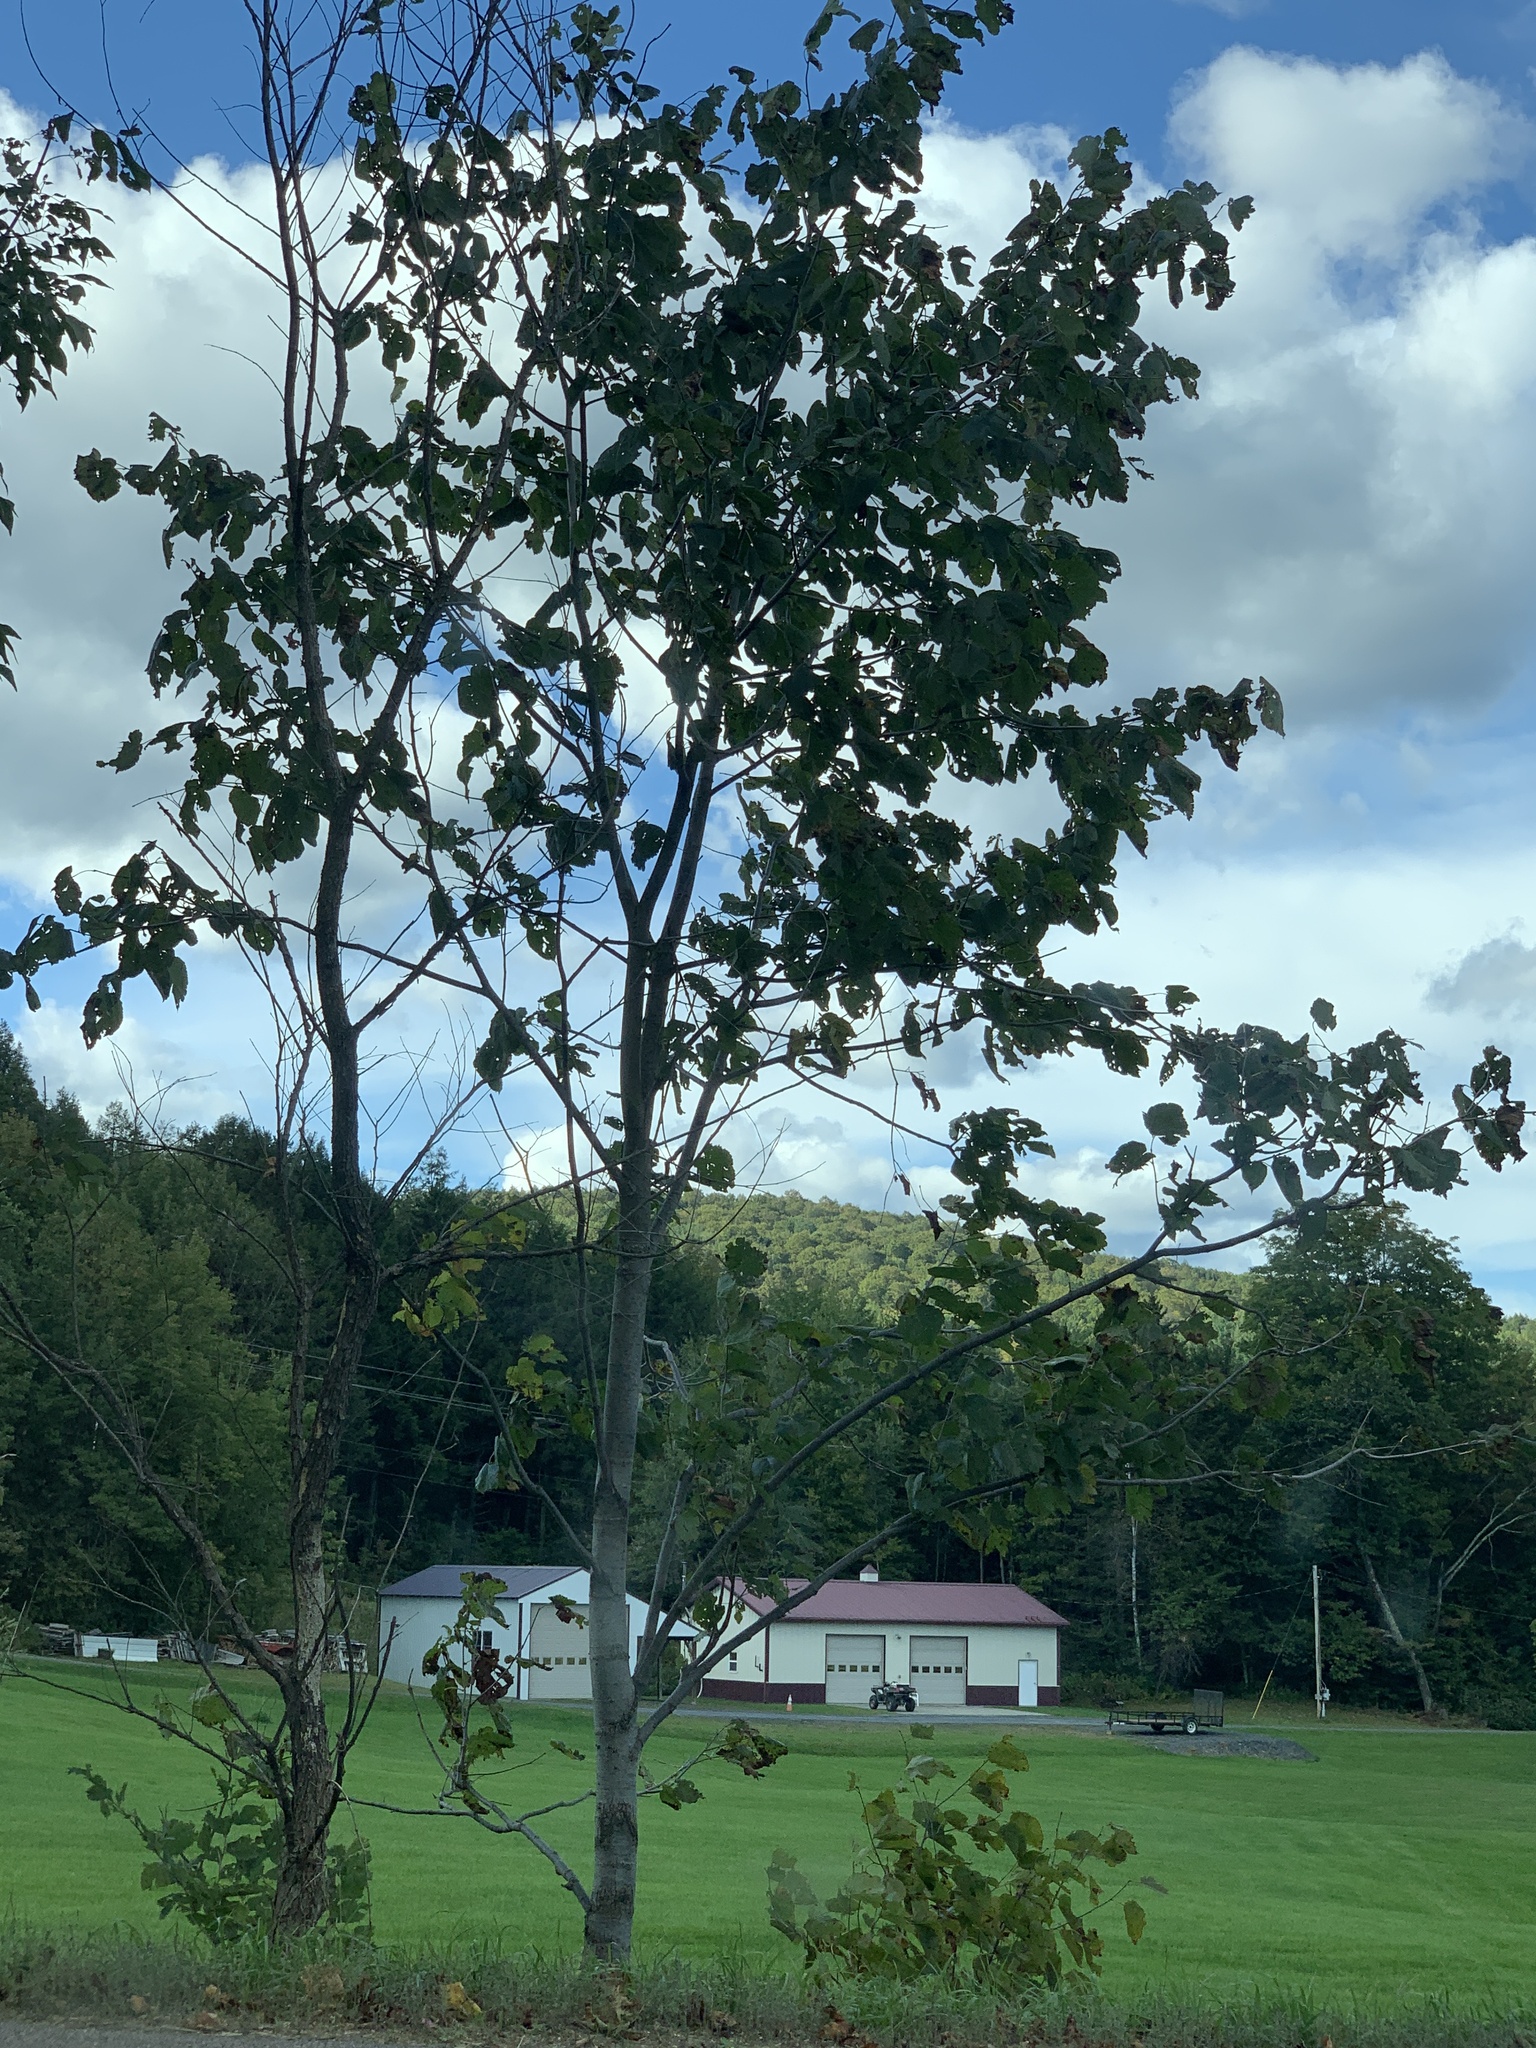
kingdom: Plantae
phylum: Tracheophyta
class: Magnoliopsida
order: Malvales
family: Malvaceae
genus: Tilia
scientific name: Tilia americana
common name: Basswood
